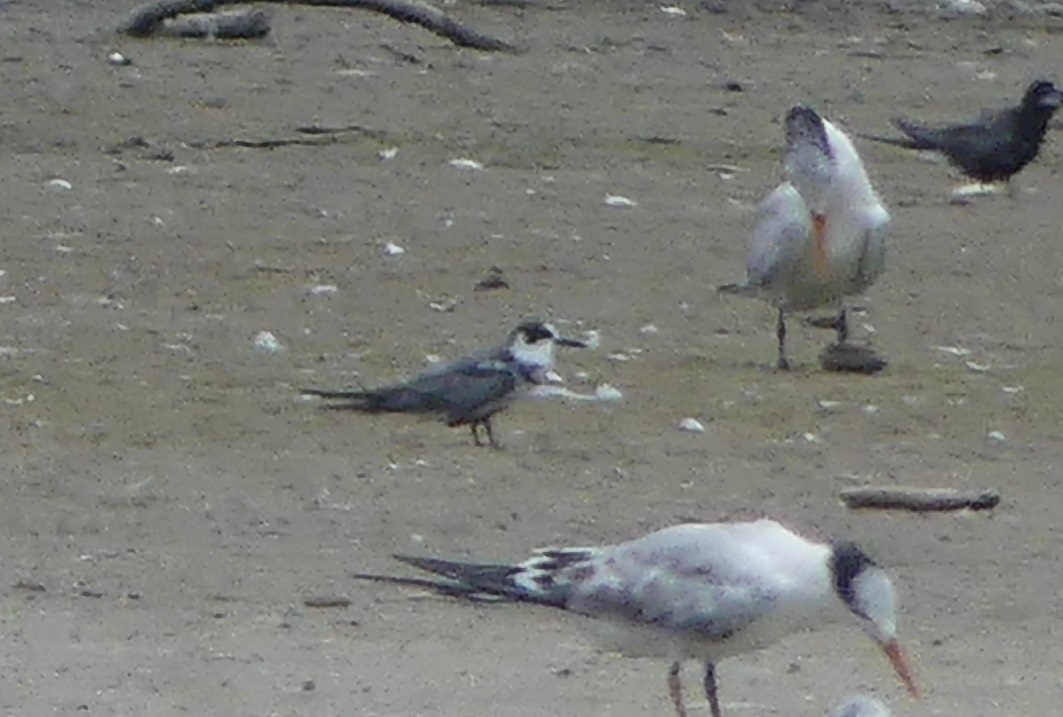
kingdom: Animalia
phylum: Chordata
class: Aves
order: Charadriiformes
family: Laridae
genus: Chlidonias
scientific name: Chlidonias niger
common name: Black tern
